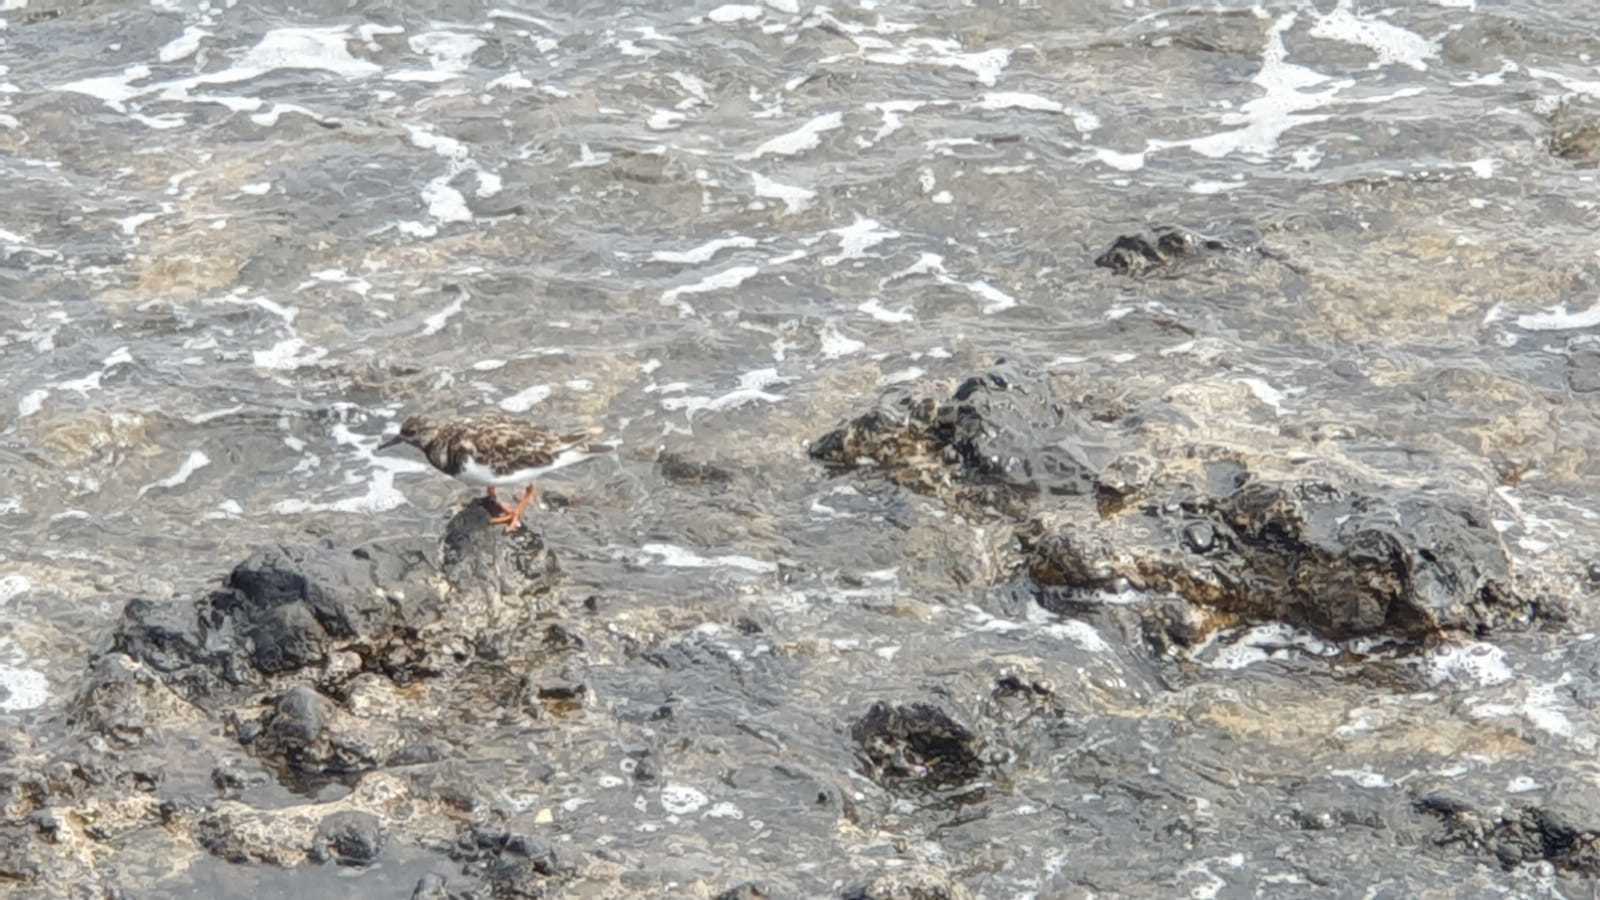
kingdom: Animalia
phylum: Chordata
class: Aves
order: Charadriiformes
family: Scolopacidae
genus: Arenaria
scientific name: Arenaria interpres
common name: Ruddy turnstone
